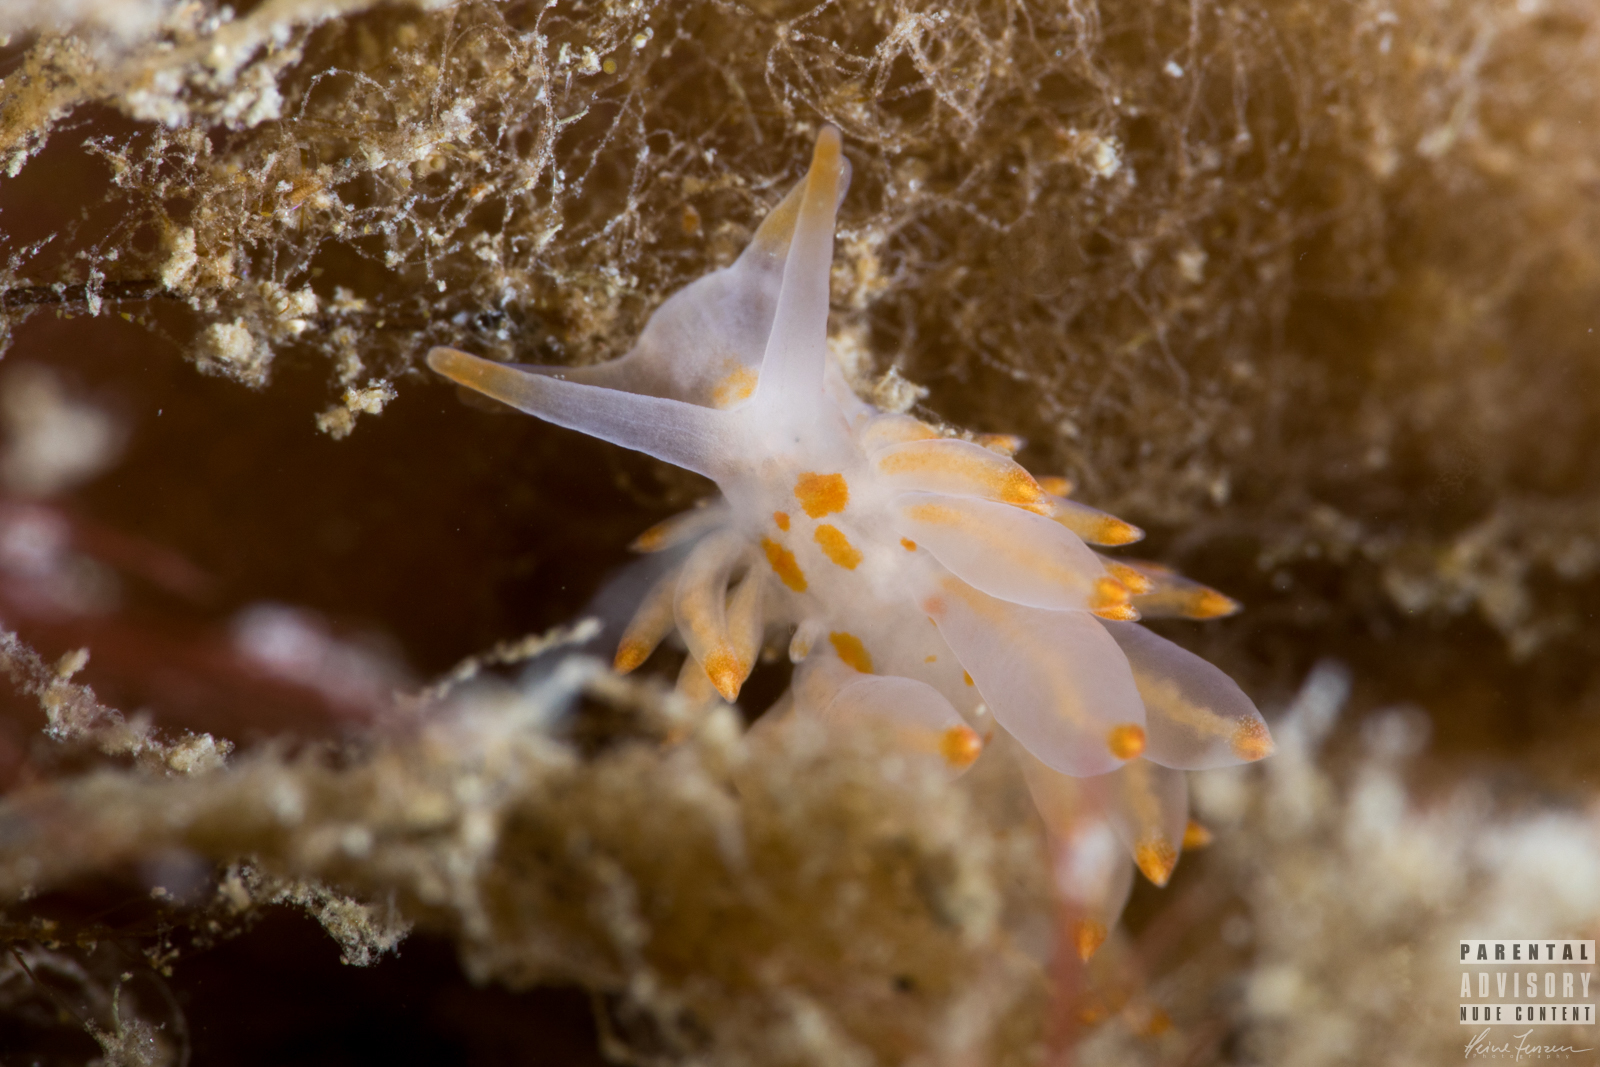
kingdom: Animalia
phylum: Mollusca
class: Gastropoda
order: Nudibranchia
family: Eubranchidae
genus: Amphorina
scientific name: Amphorina andra
